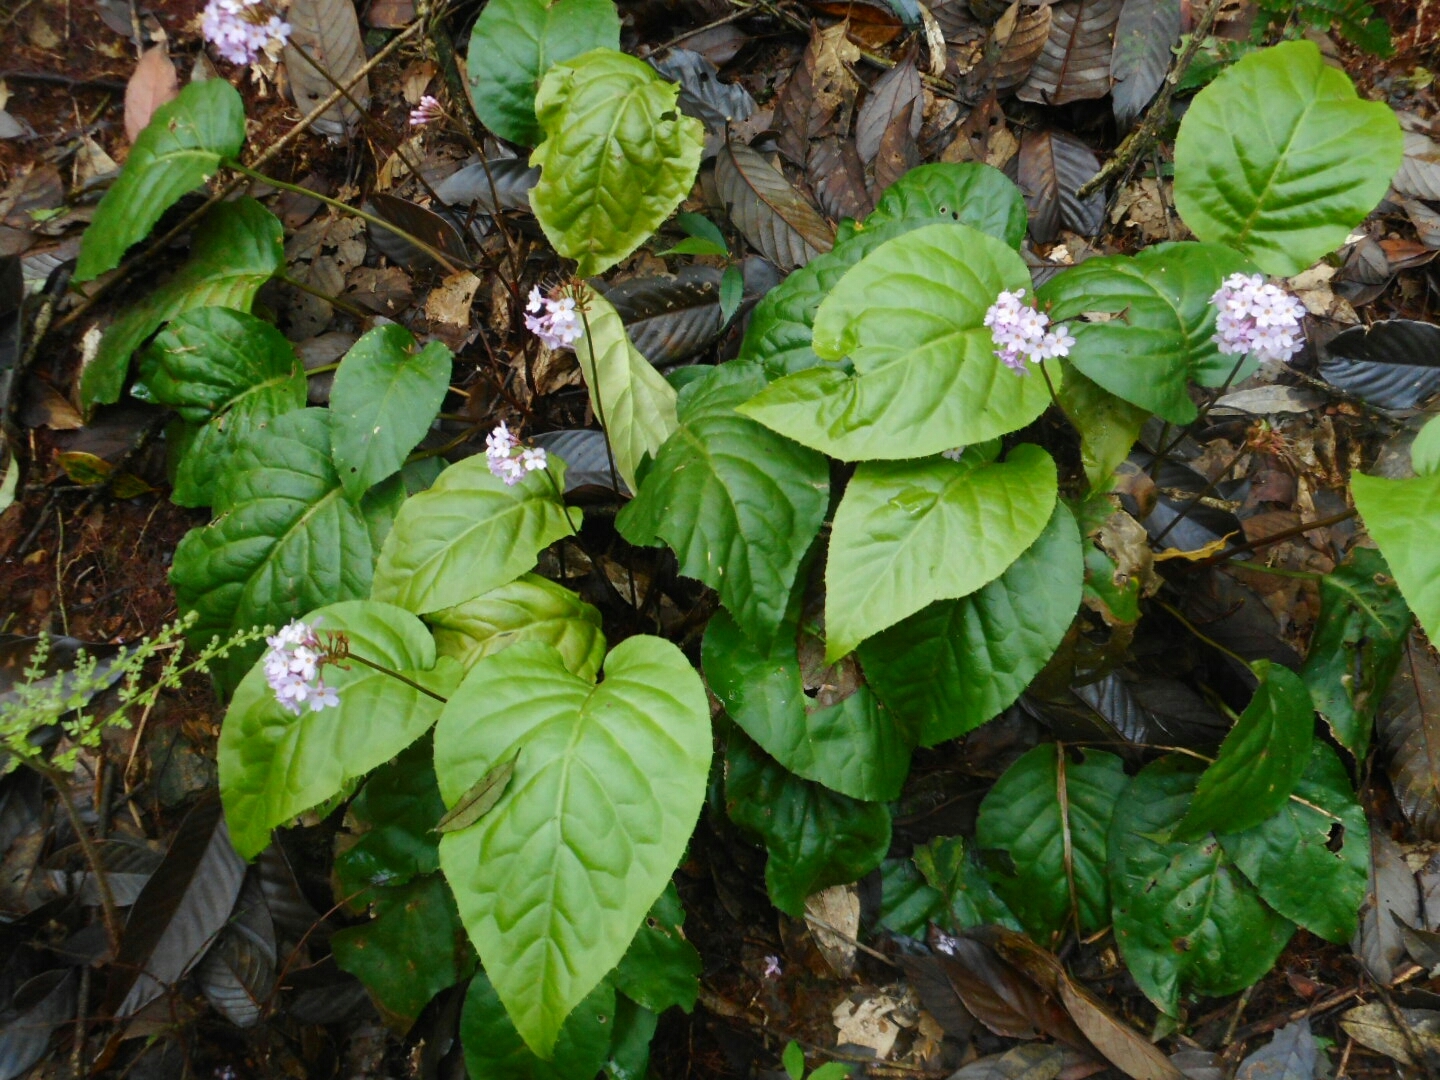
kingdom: Plantae
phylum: Tracheophyta
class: Magnoliopsida
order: Ericales
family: Primulaceae
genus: Primula
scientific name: Primula carolinehenryae
